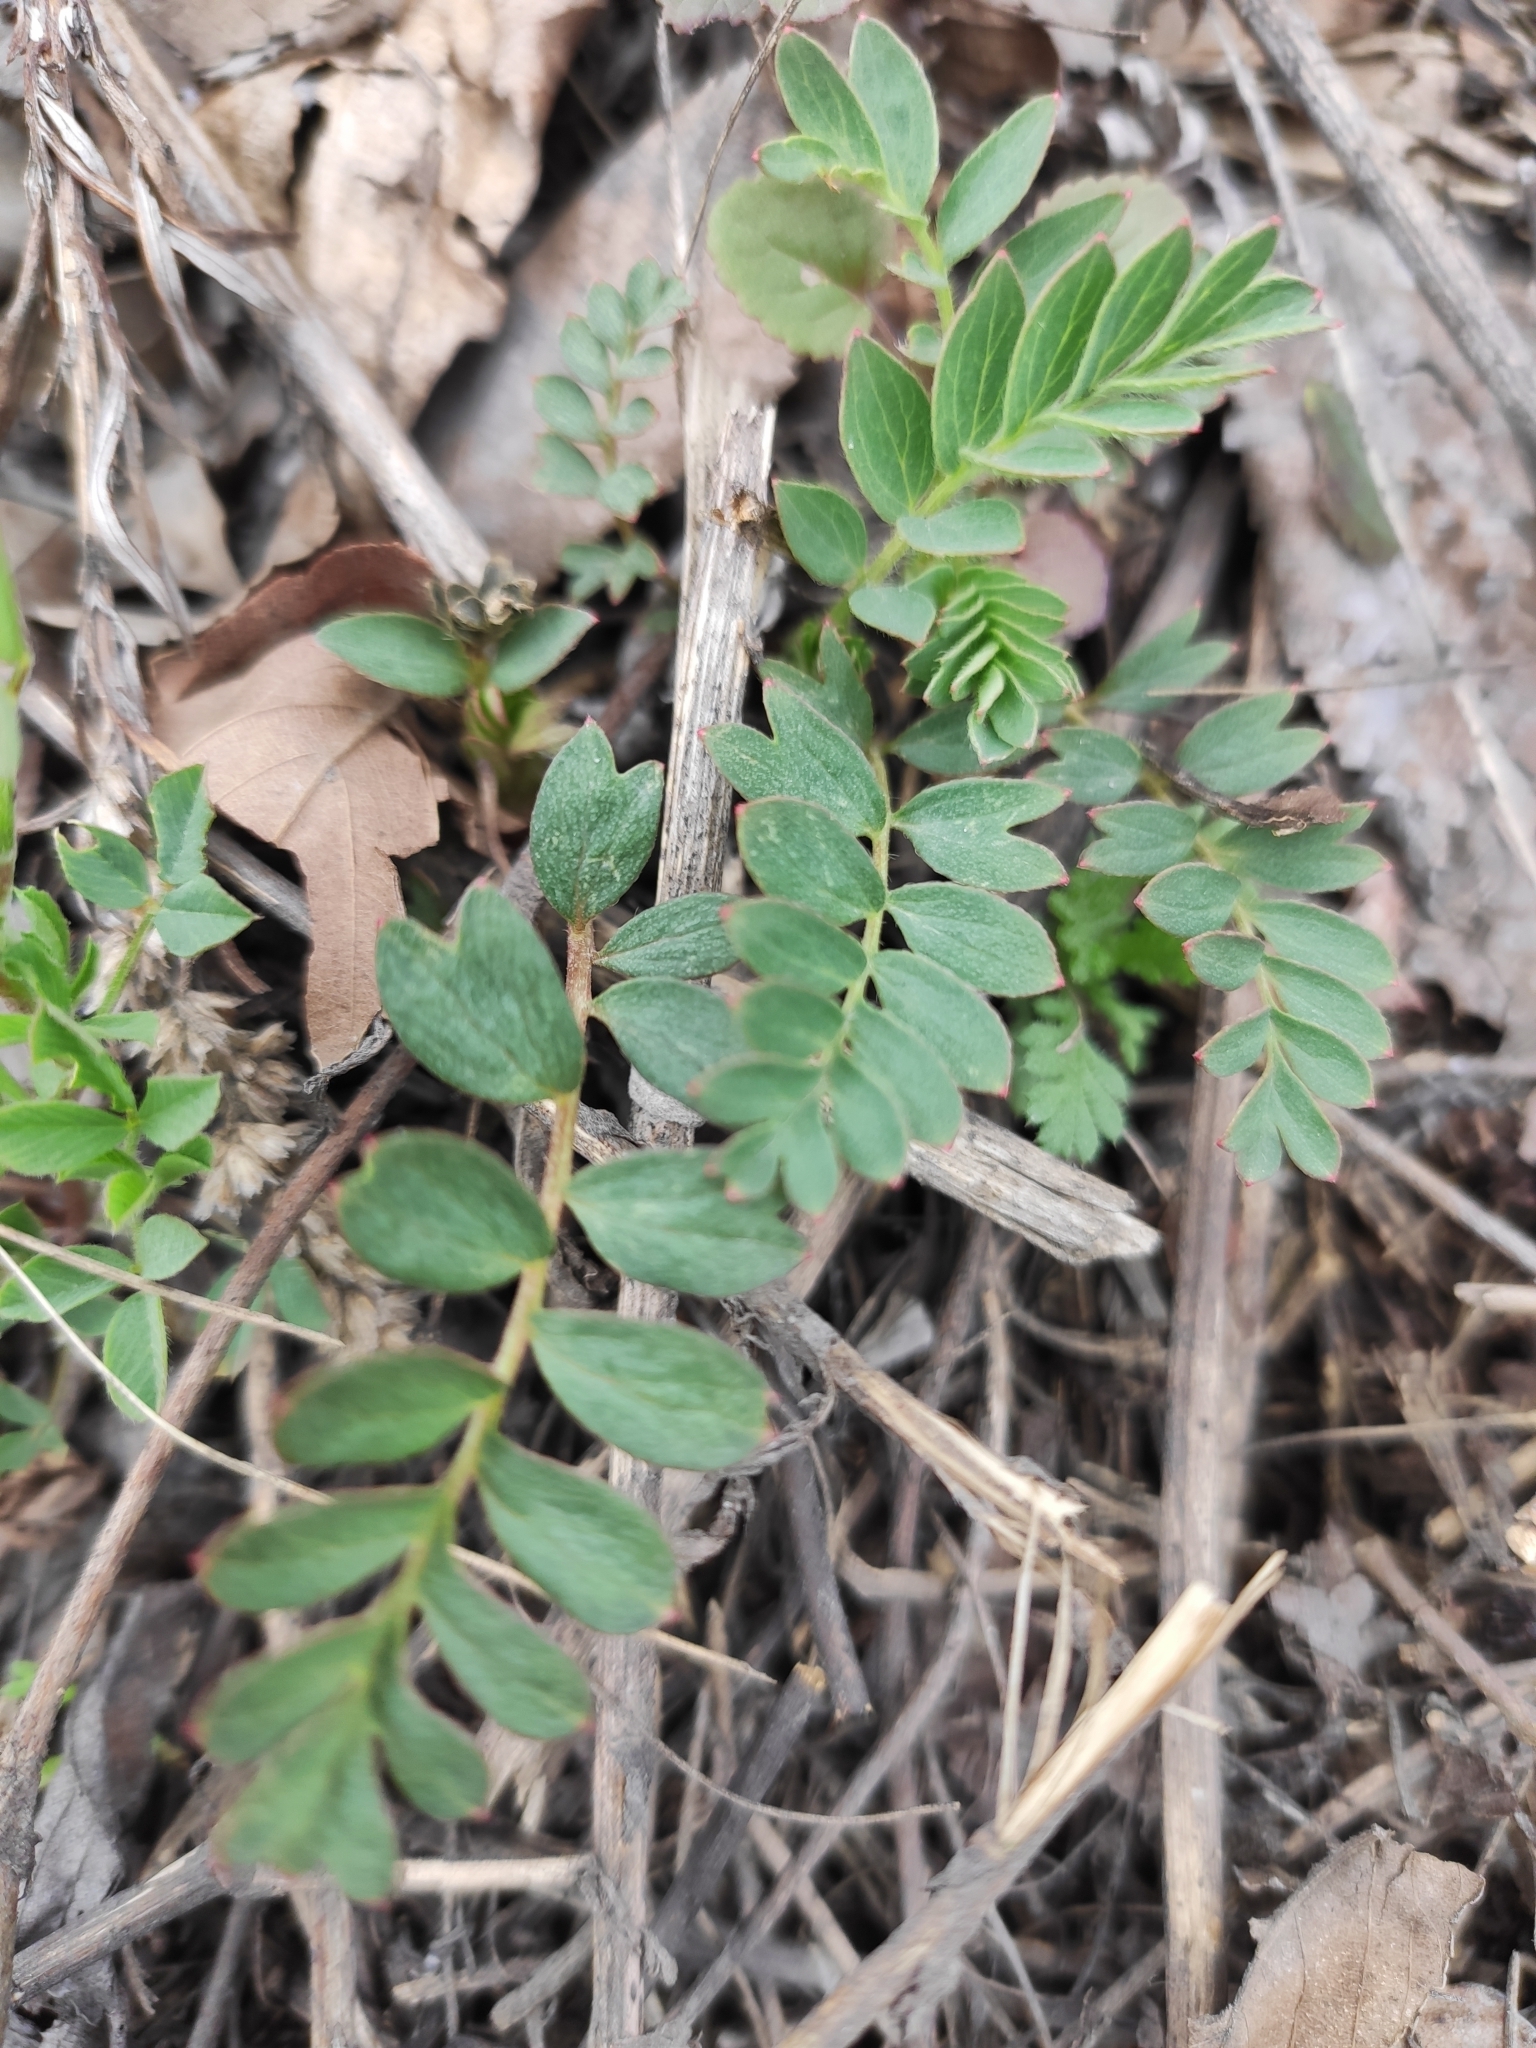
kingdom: Plantae
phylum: Tracheophyta
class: Magnoliopsida
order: Rosales
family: Rosaceae
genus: Sibbaldianthe
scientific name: Sibbaldianthe bifurca
